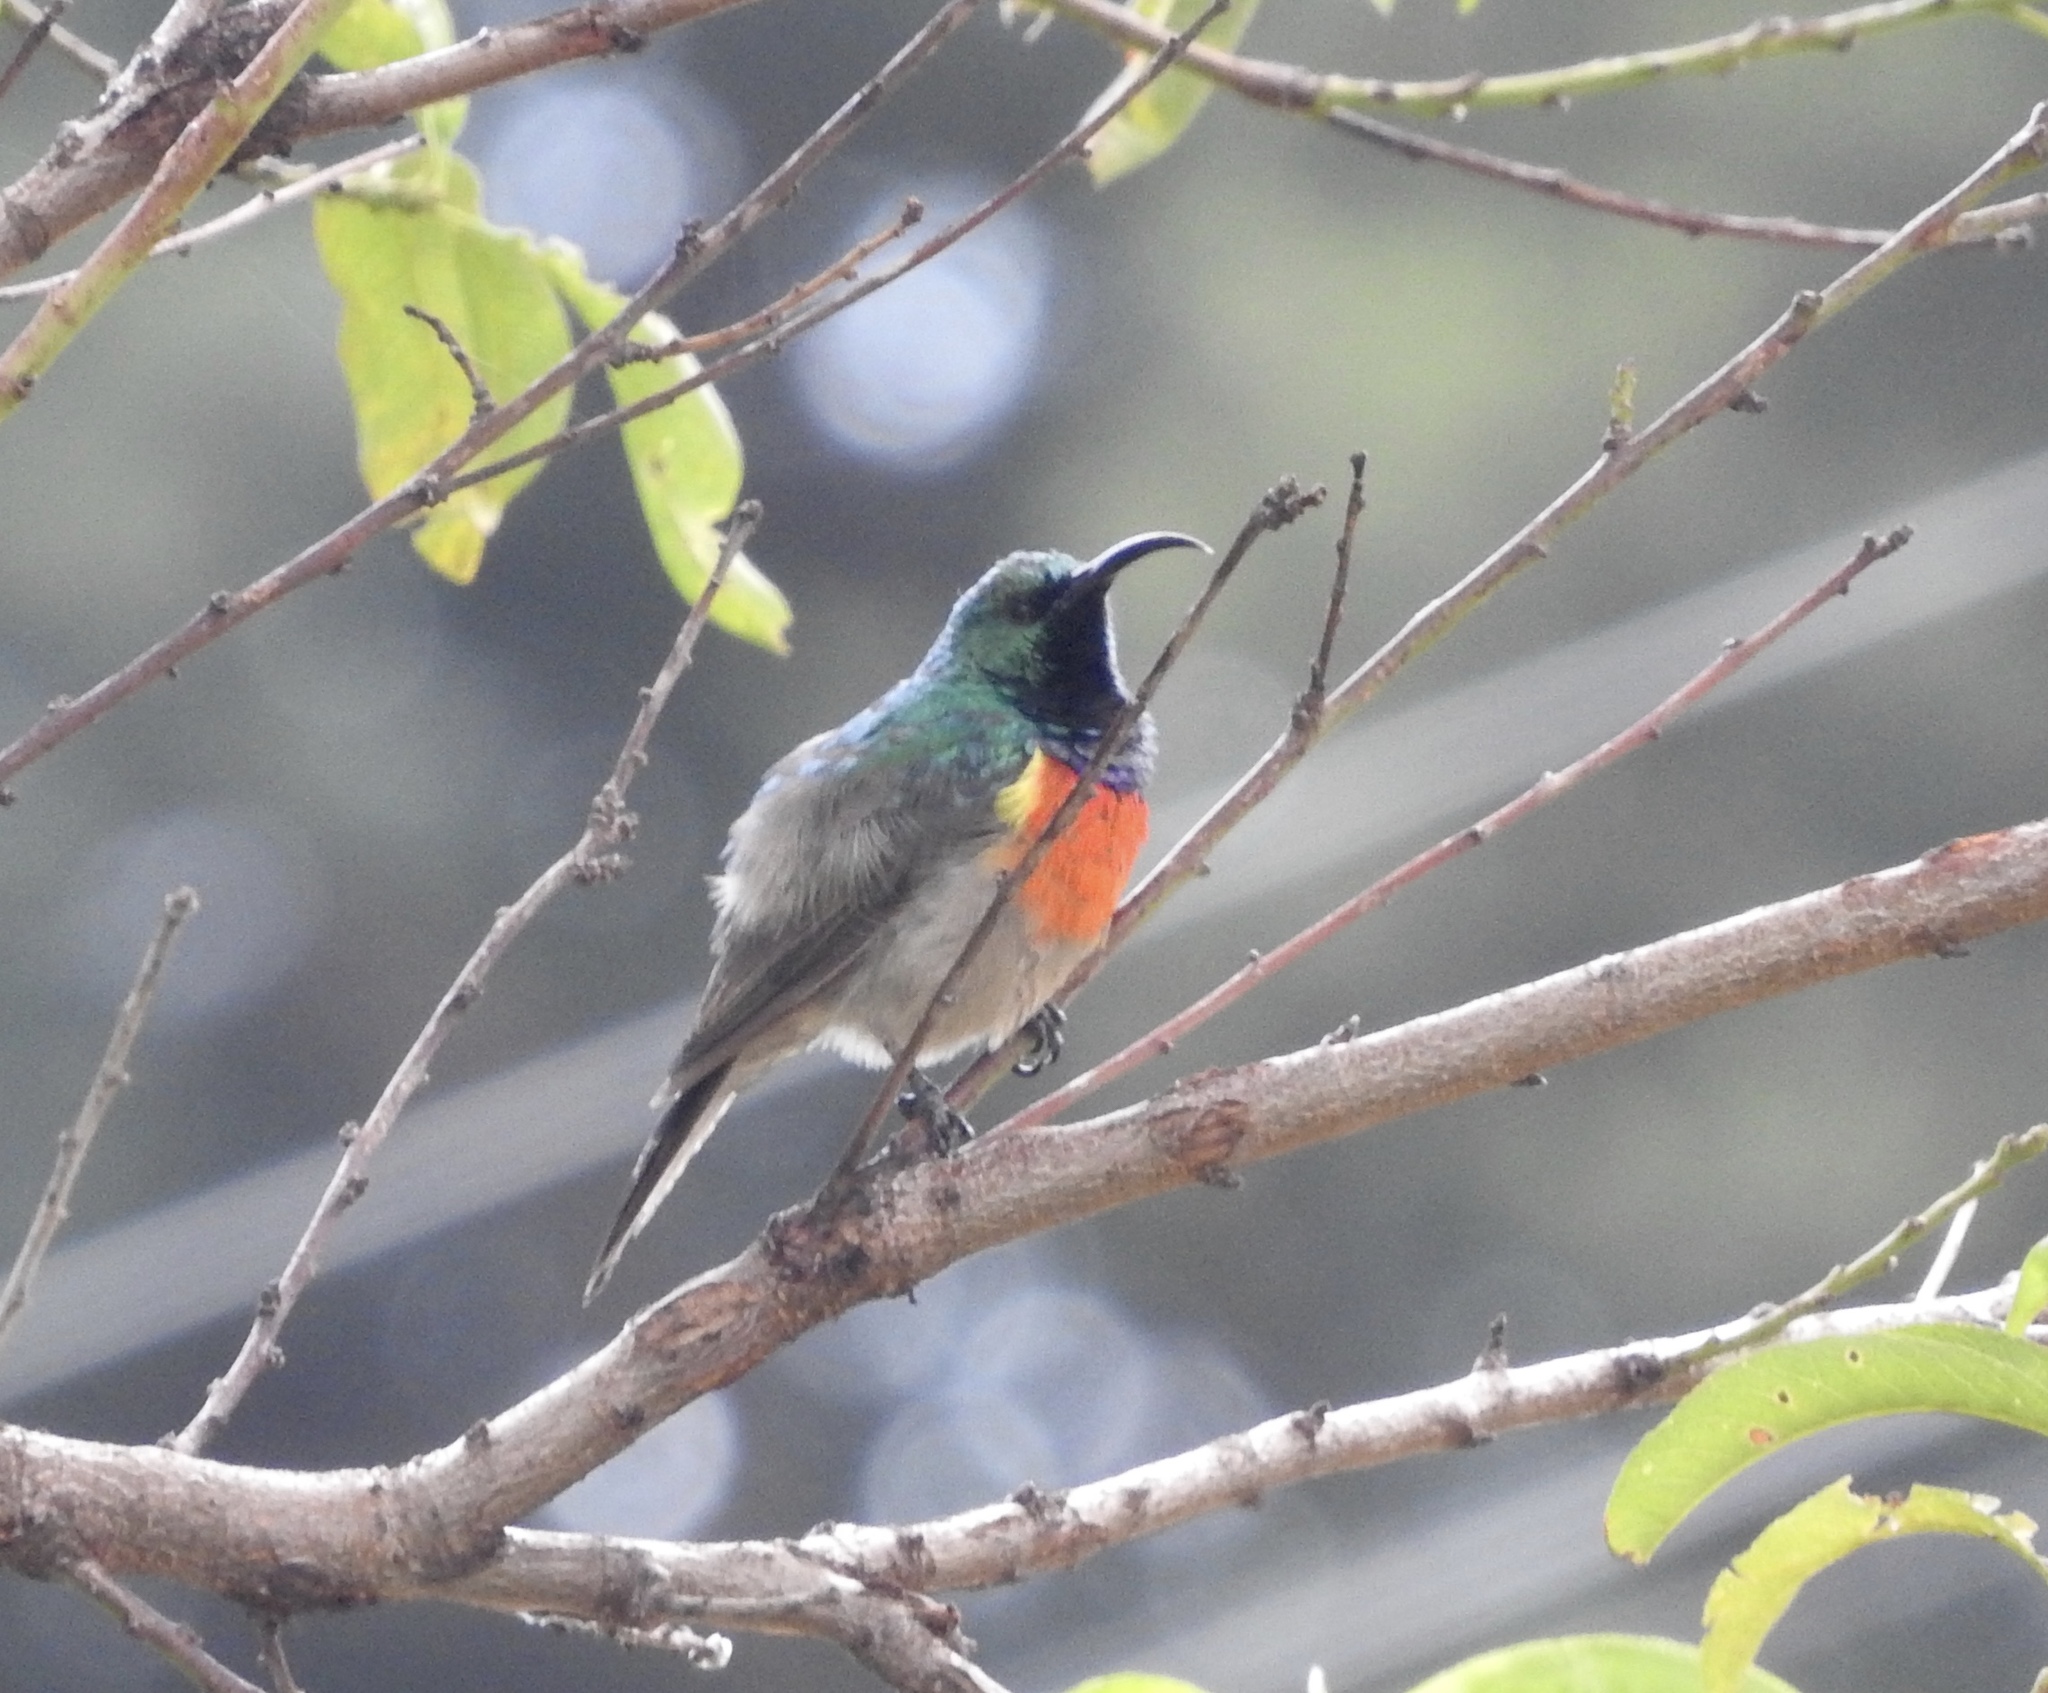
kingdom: Animalia
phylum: Chordata
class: Aves
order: Passeriformes
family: Nectariniidae
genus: Cinnyris
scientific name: Cinnyris afer
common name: Greater double-collared sunbird
